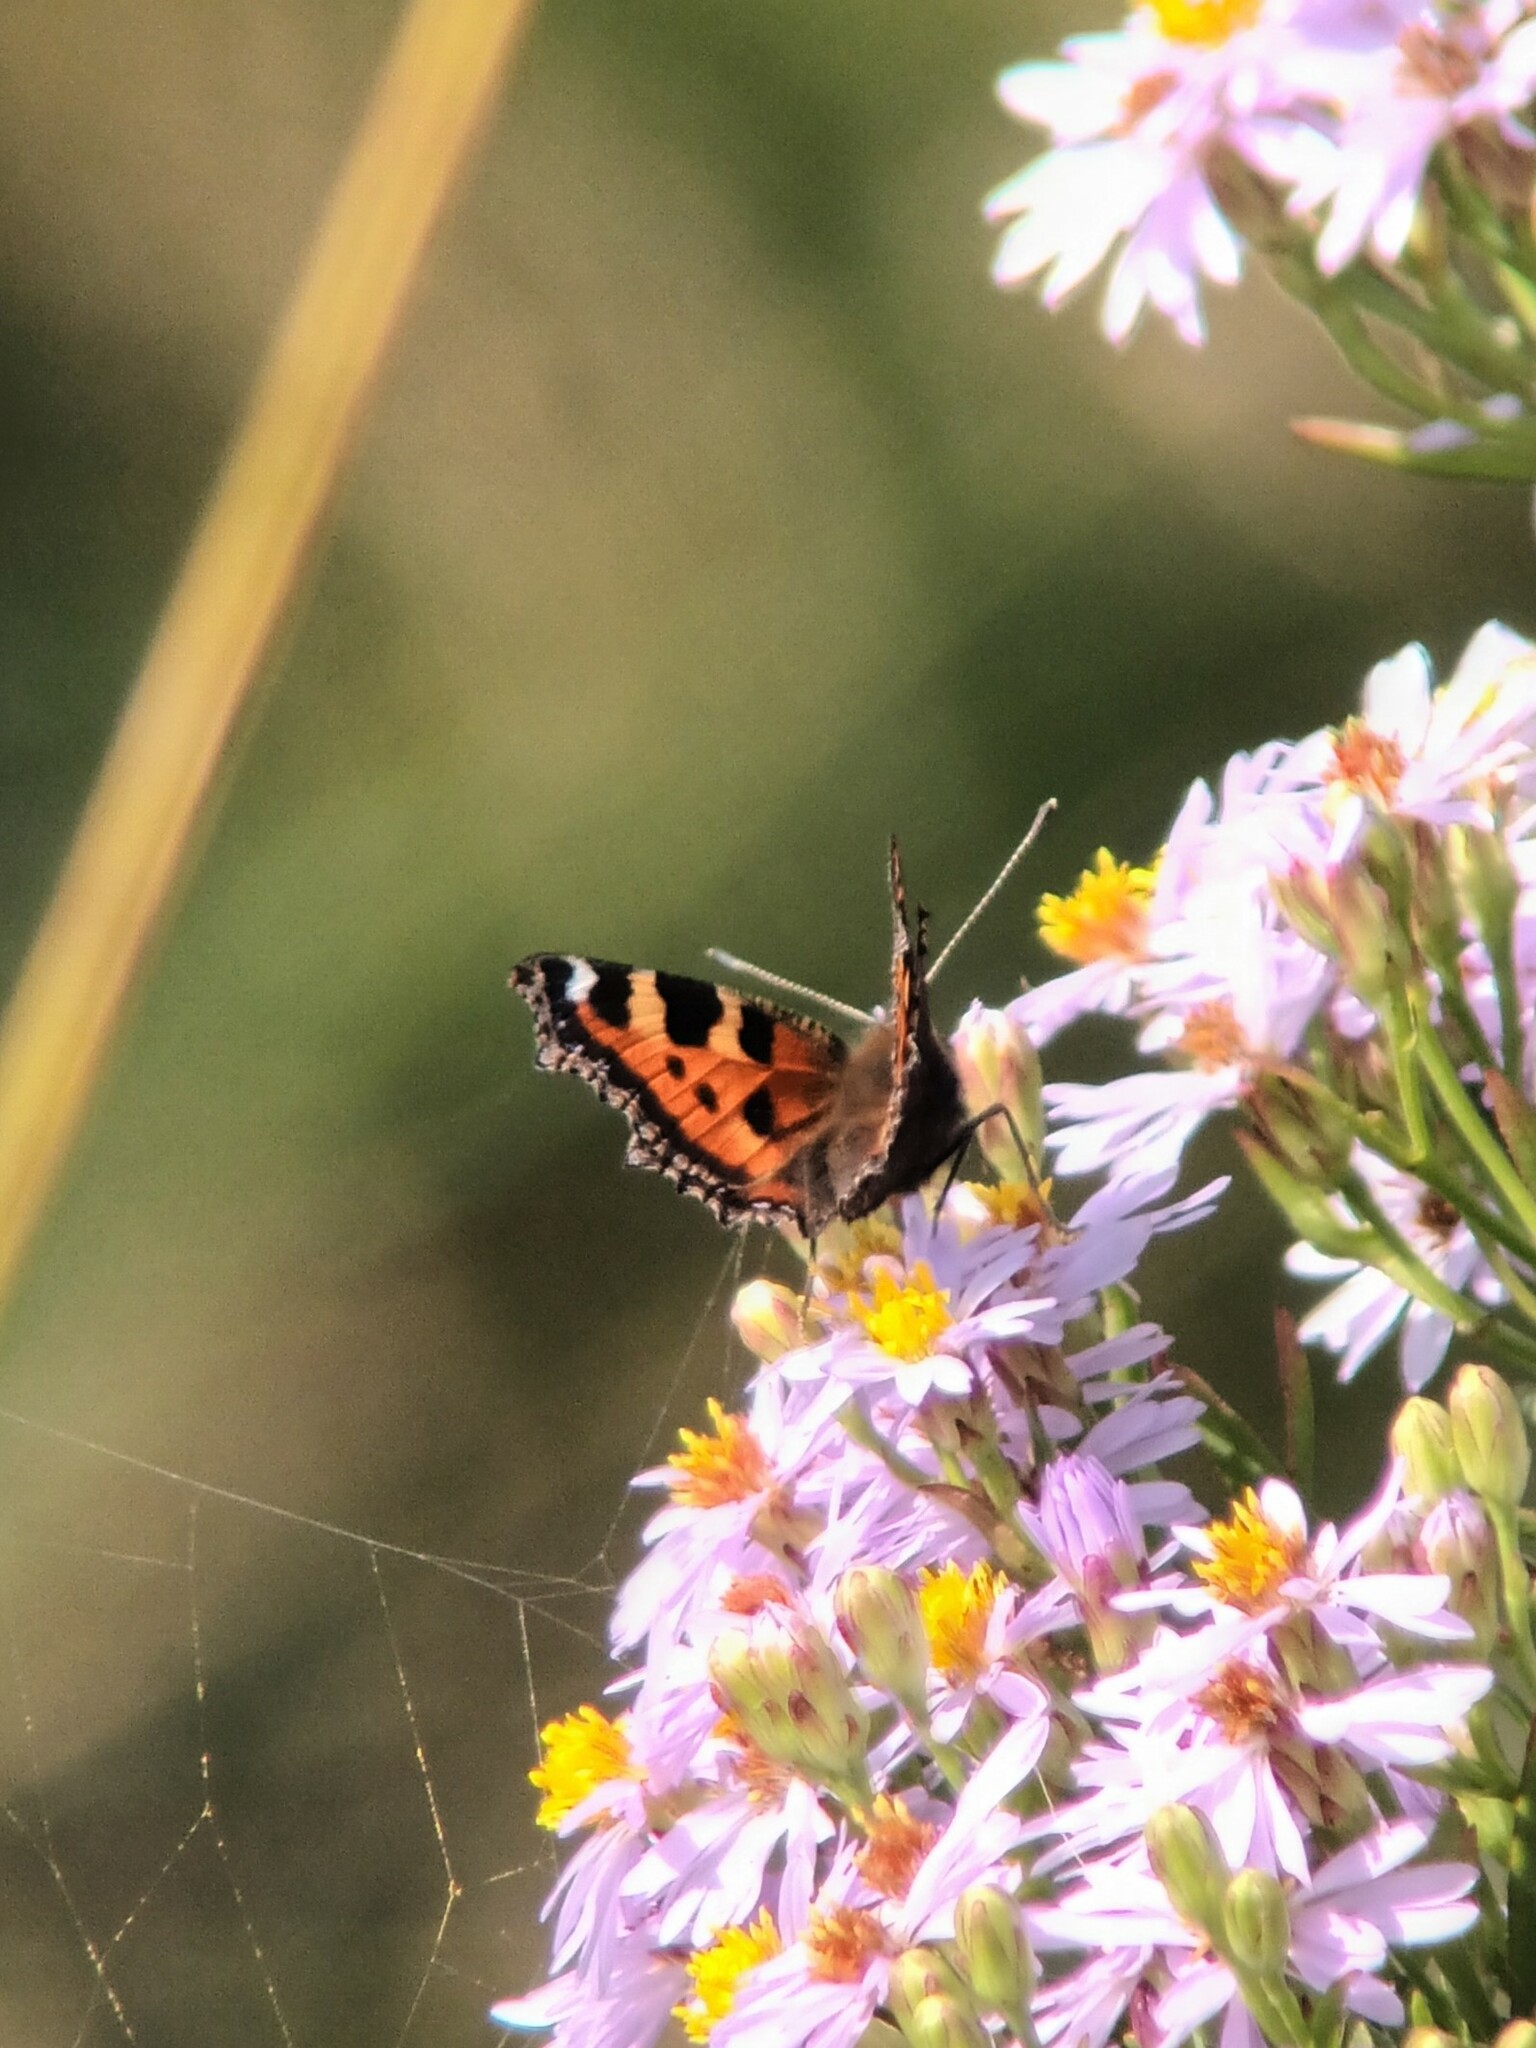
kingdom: Animalia
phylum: Arthropoda
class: Insecta
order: Lepidoptera
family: Nymphalidae
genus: Aglais
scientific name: Aglais urticae
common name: Small tortoiseshell
